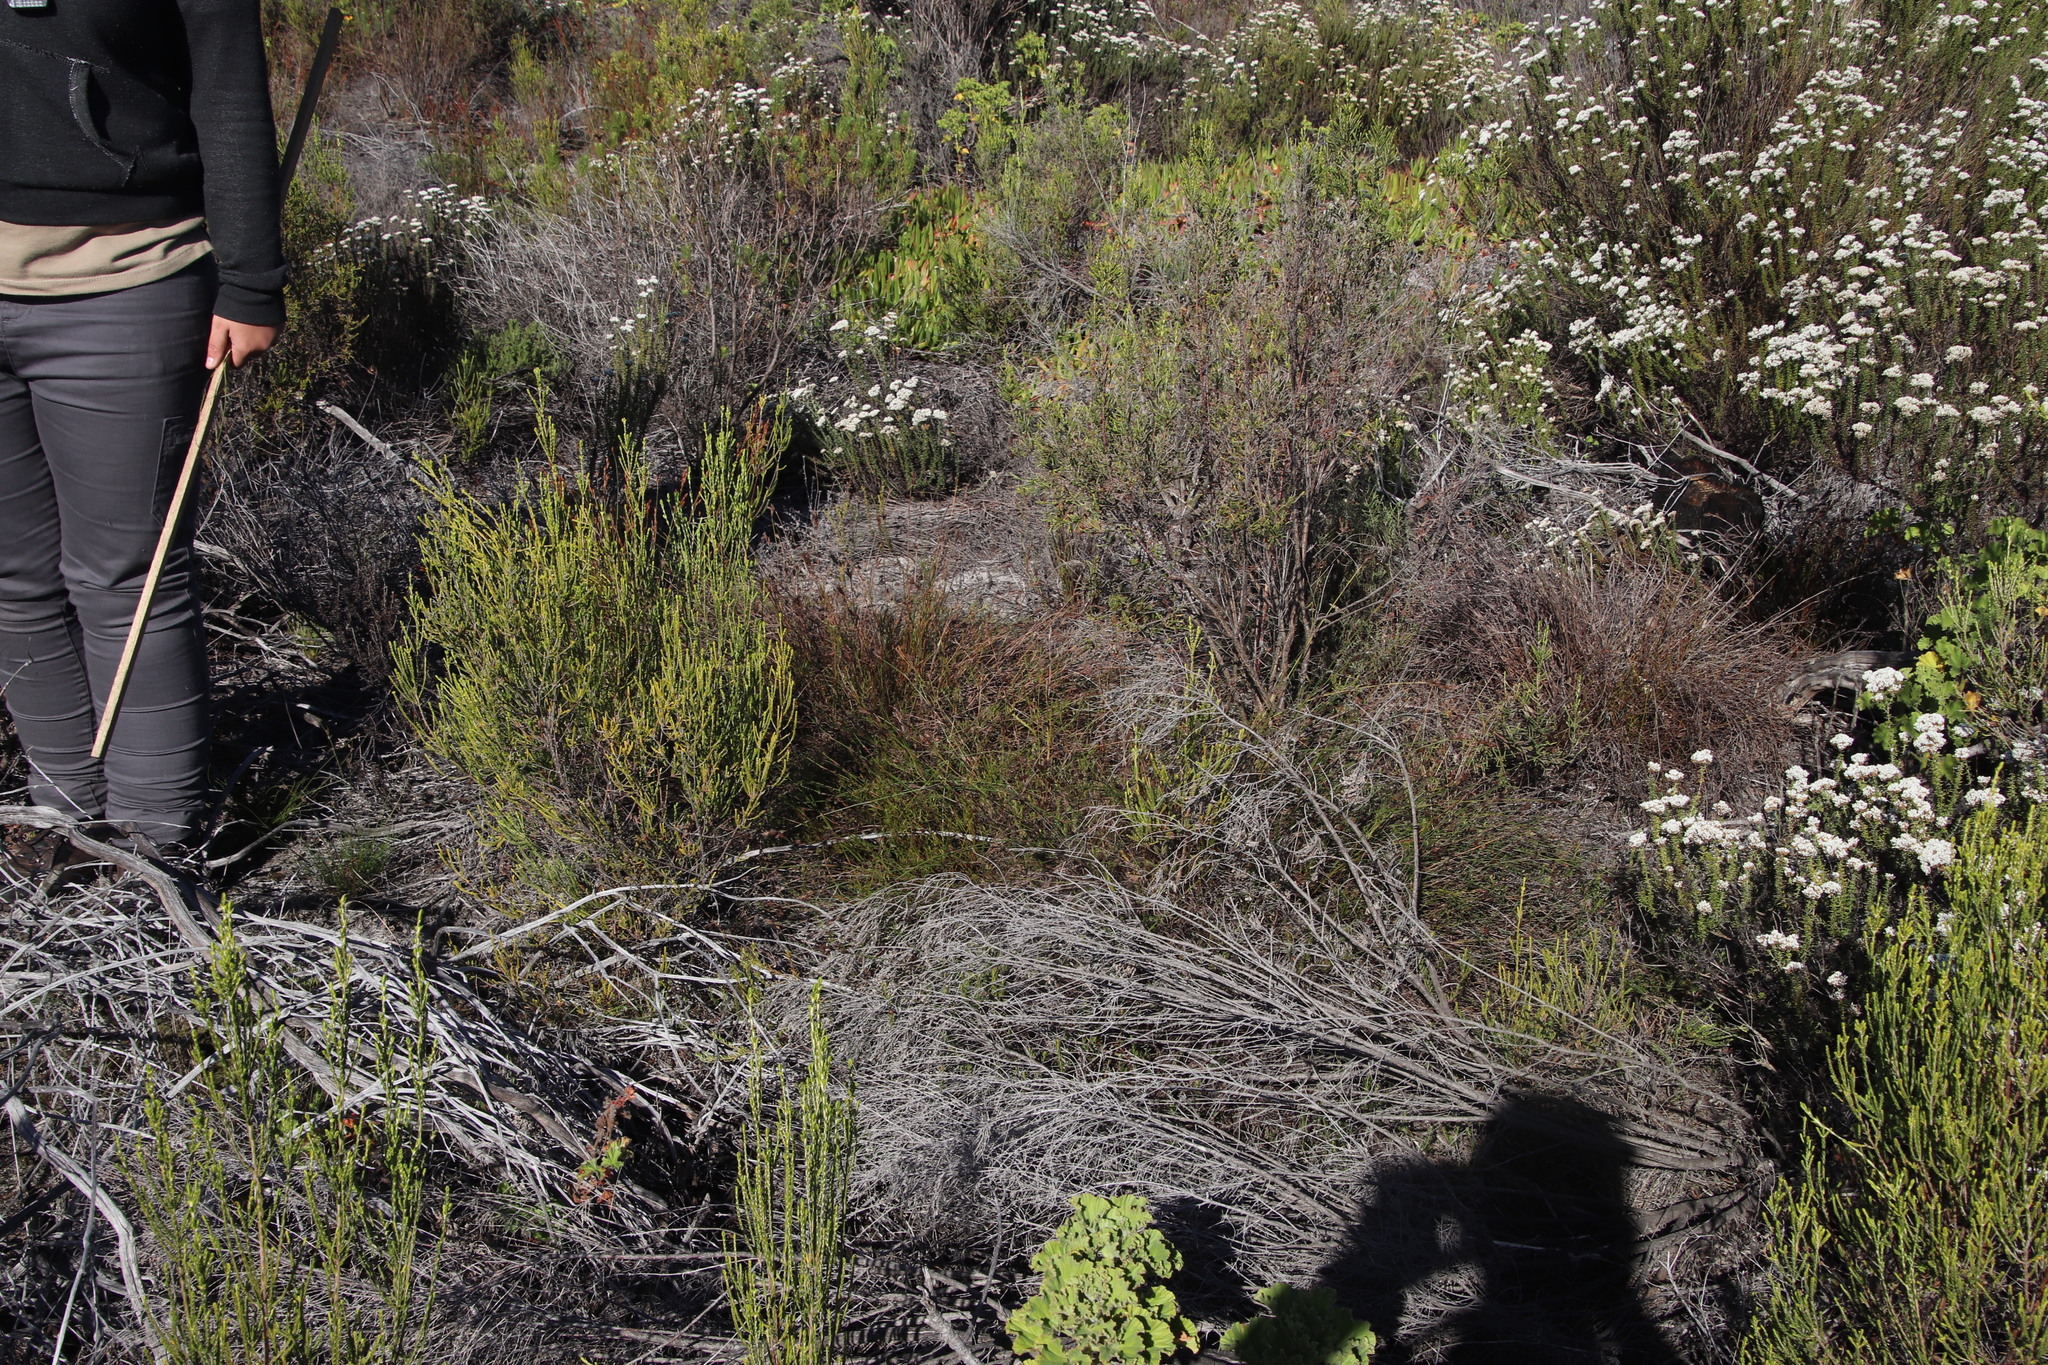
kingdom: Plantae
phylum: Tracheophyta
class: Liliopsida
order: Poales
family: Restionaceae
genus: Restio
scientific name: Restio capensis
